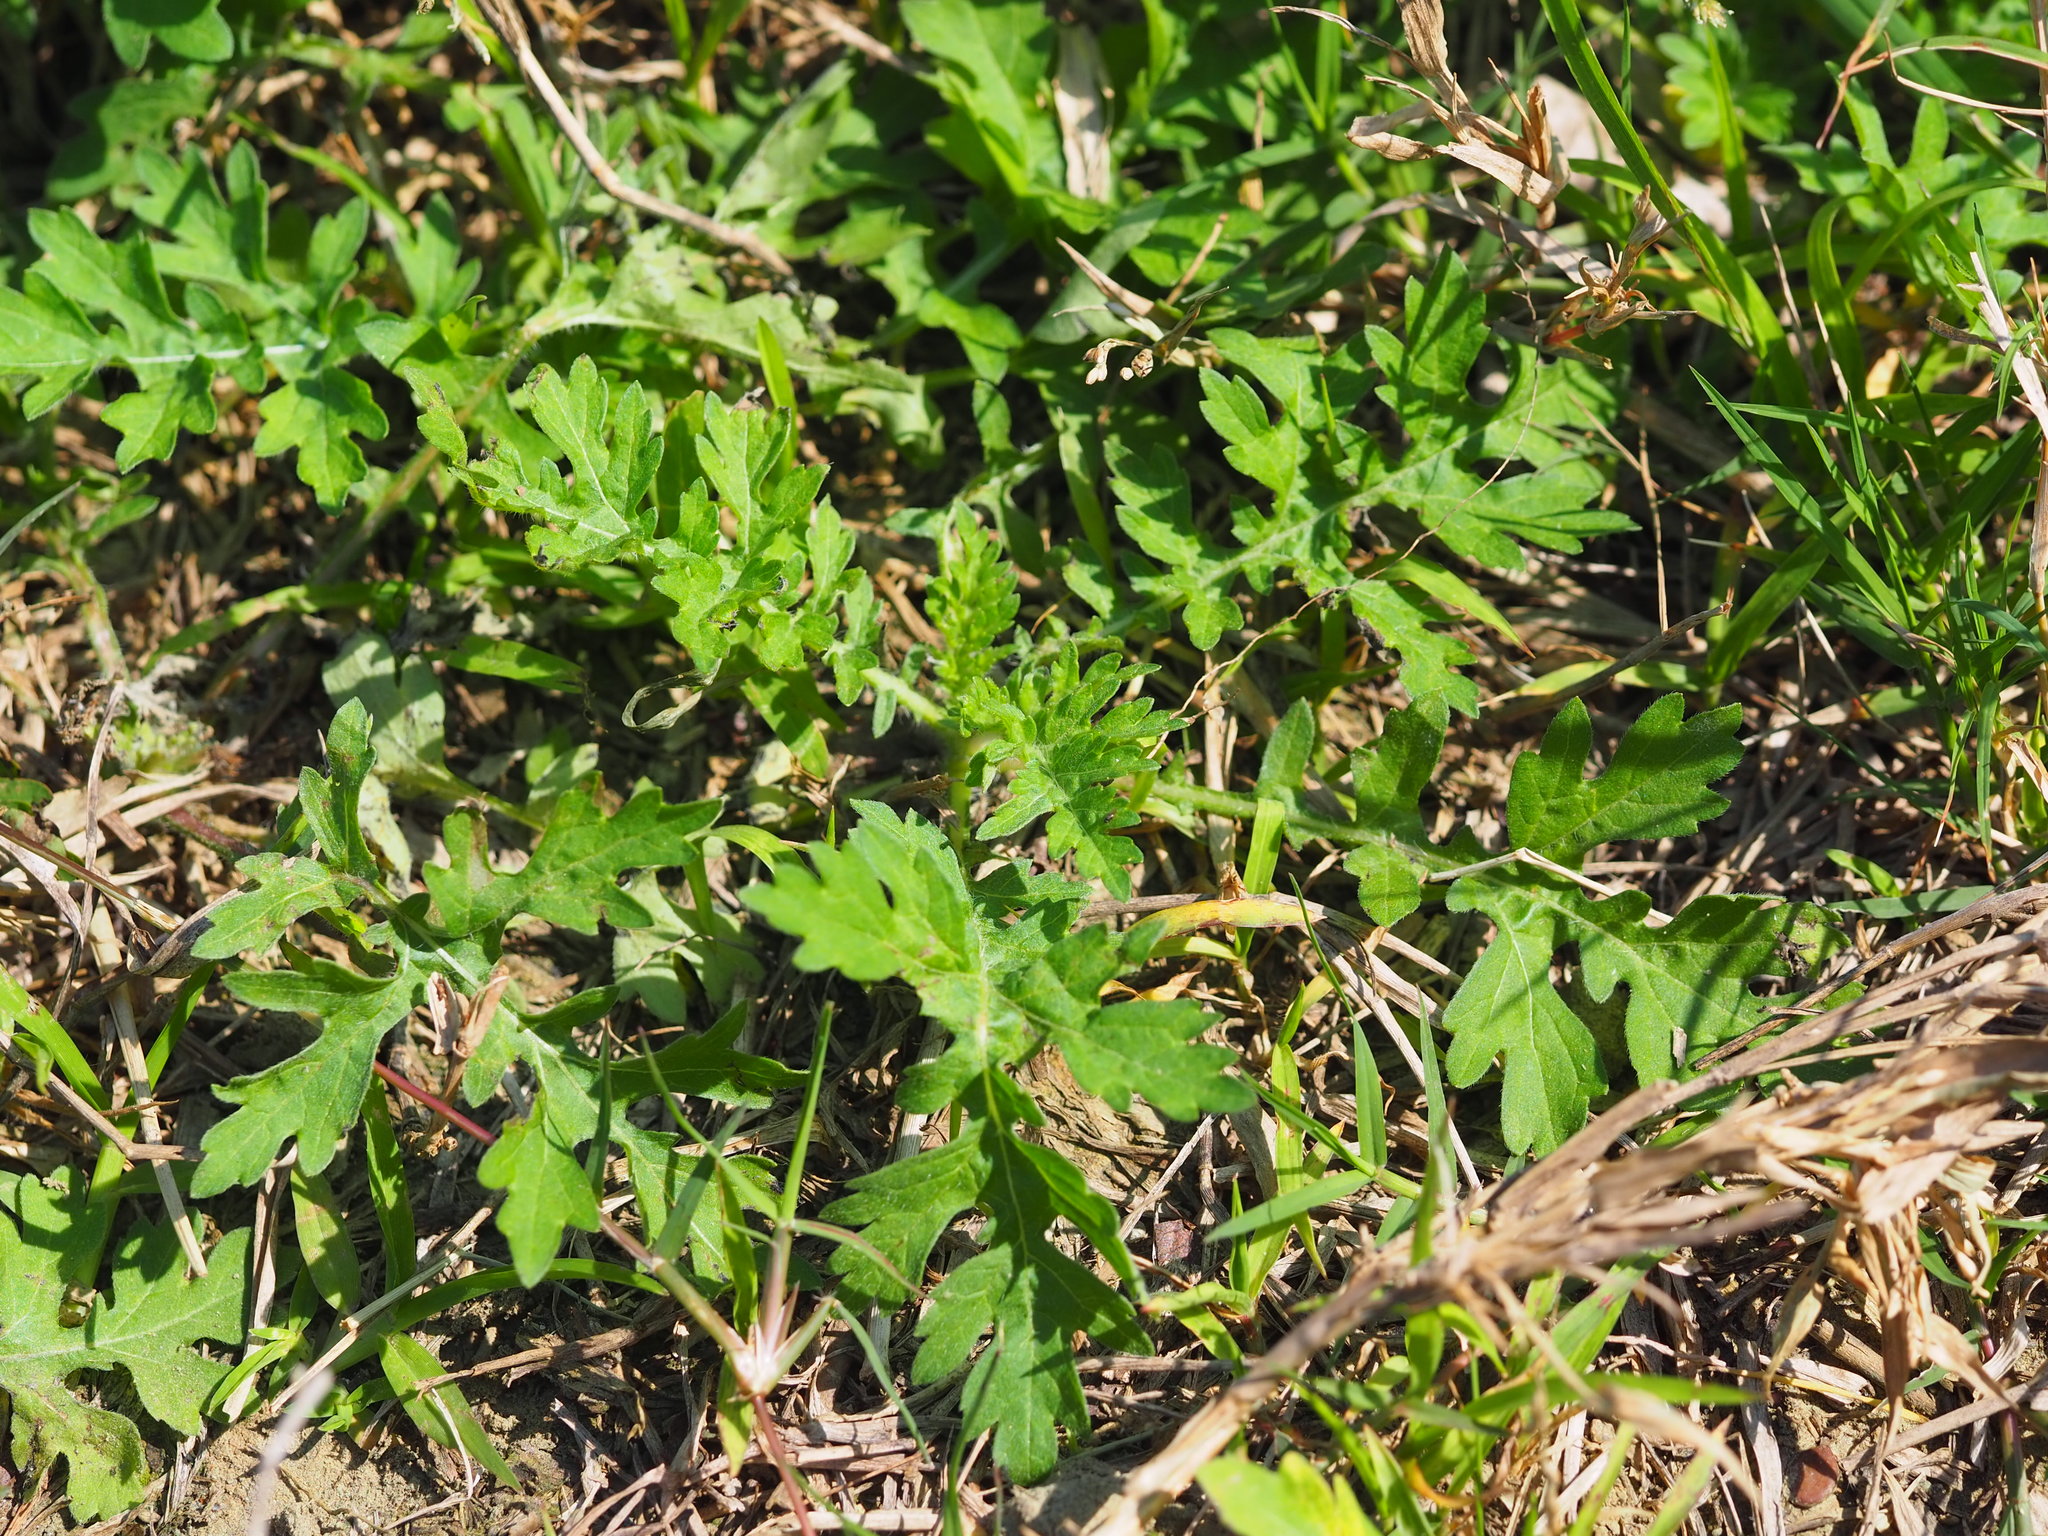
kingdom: Plantae
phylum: Tracheophyta
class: Magnoliopsida
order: Asterales
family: Asteraceae
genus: Artemisia
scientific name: Artemisia indica
